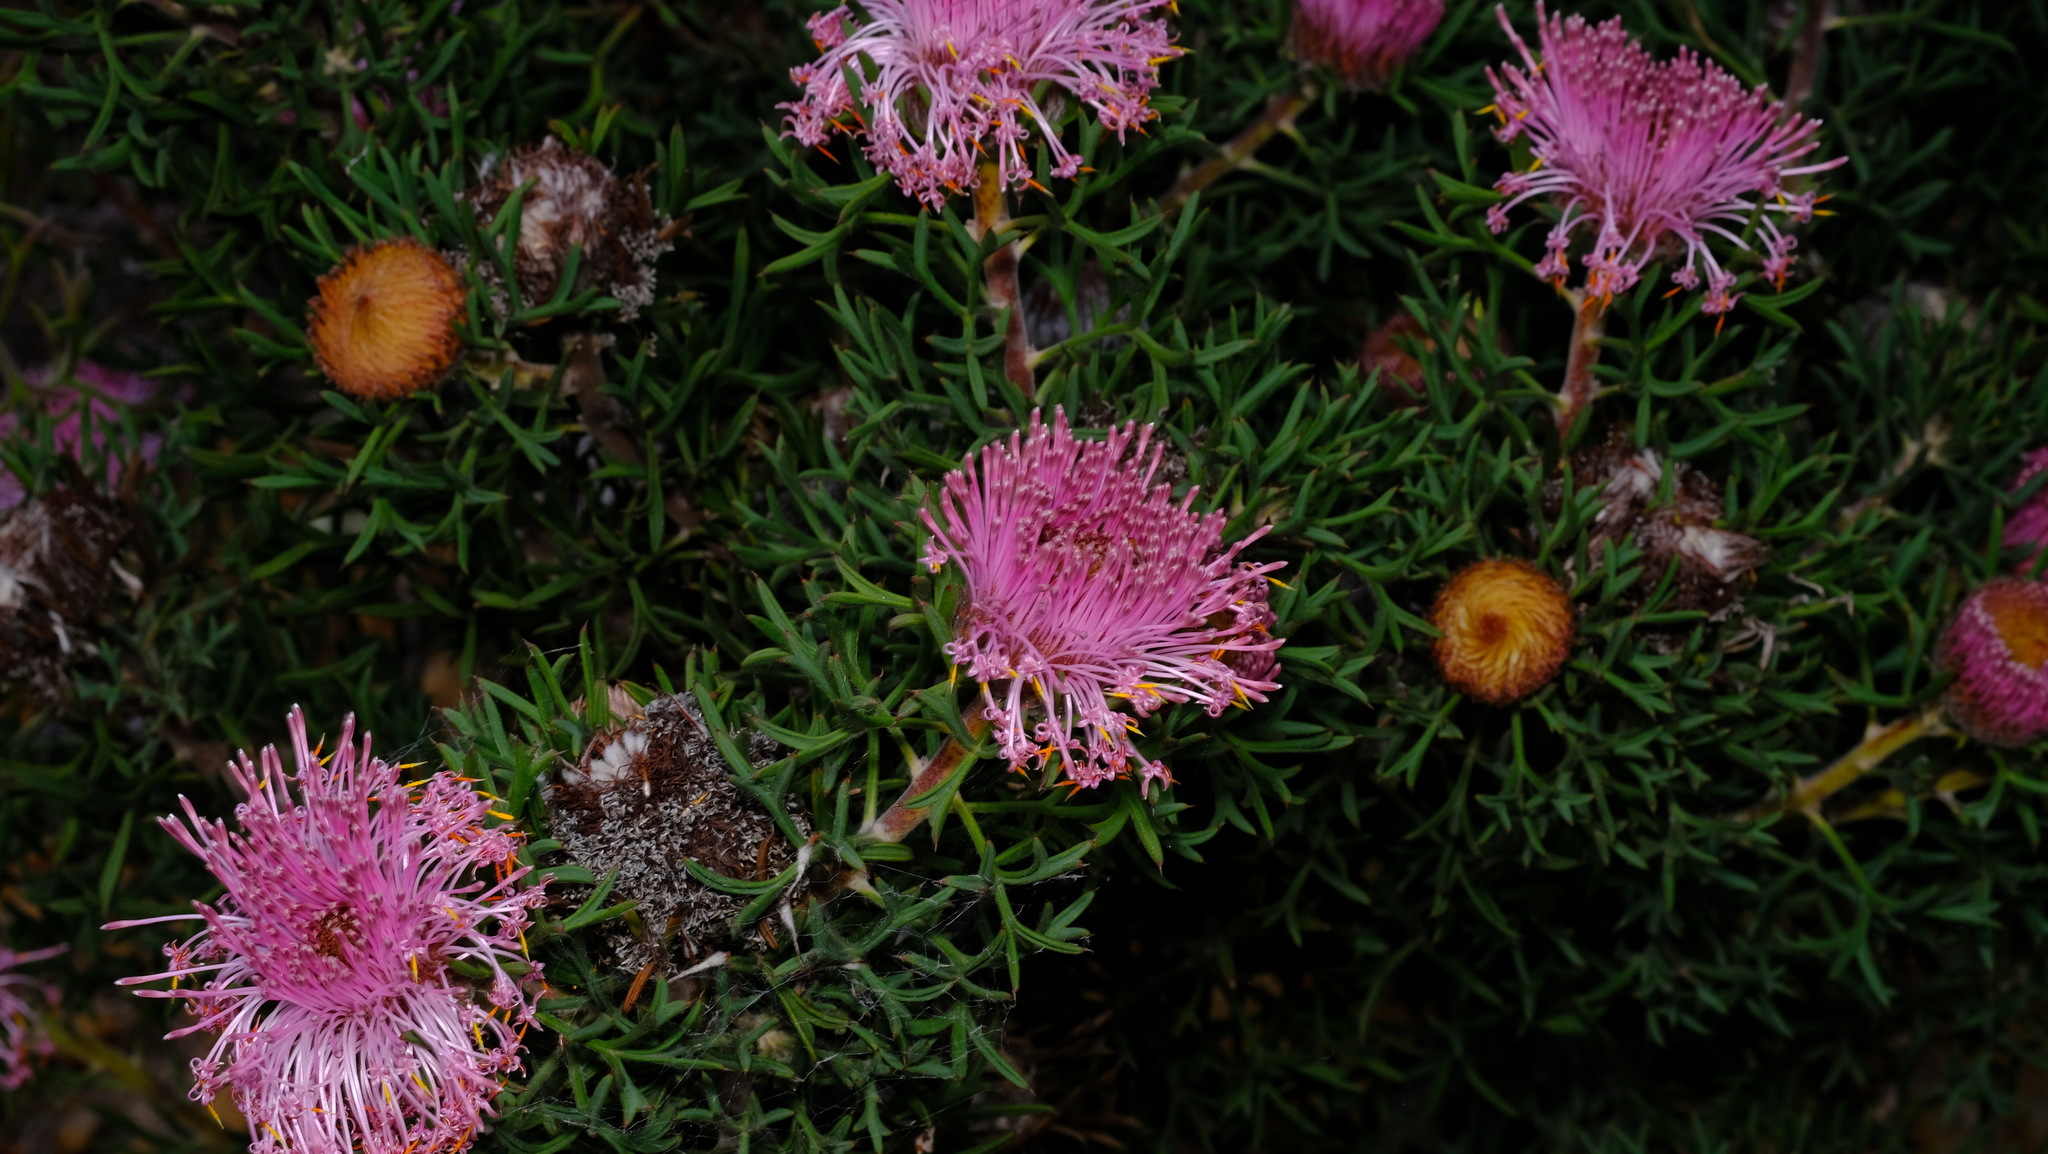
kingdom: Plantae
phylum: Tracheophyta
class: Magnoliopsida
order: Proteales
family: Proteaceae
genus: Isopogon
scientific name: Isopogon dubius
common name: Pincushion-coneflower
